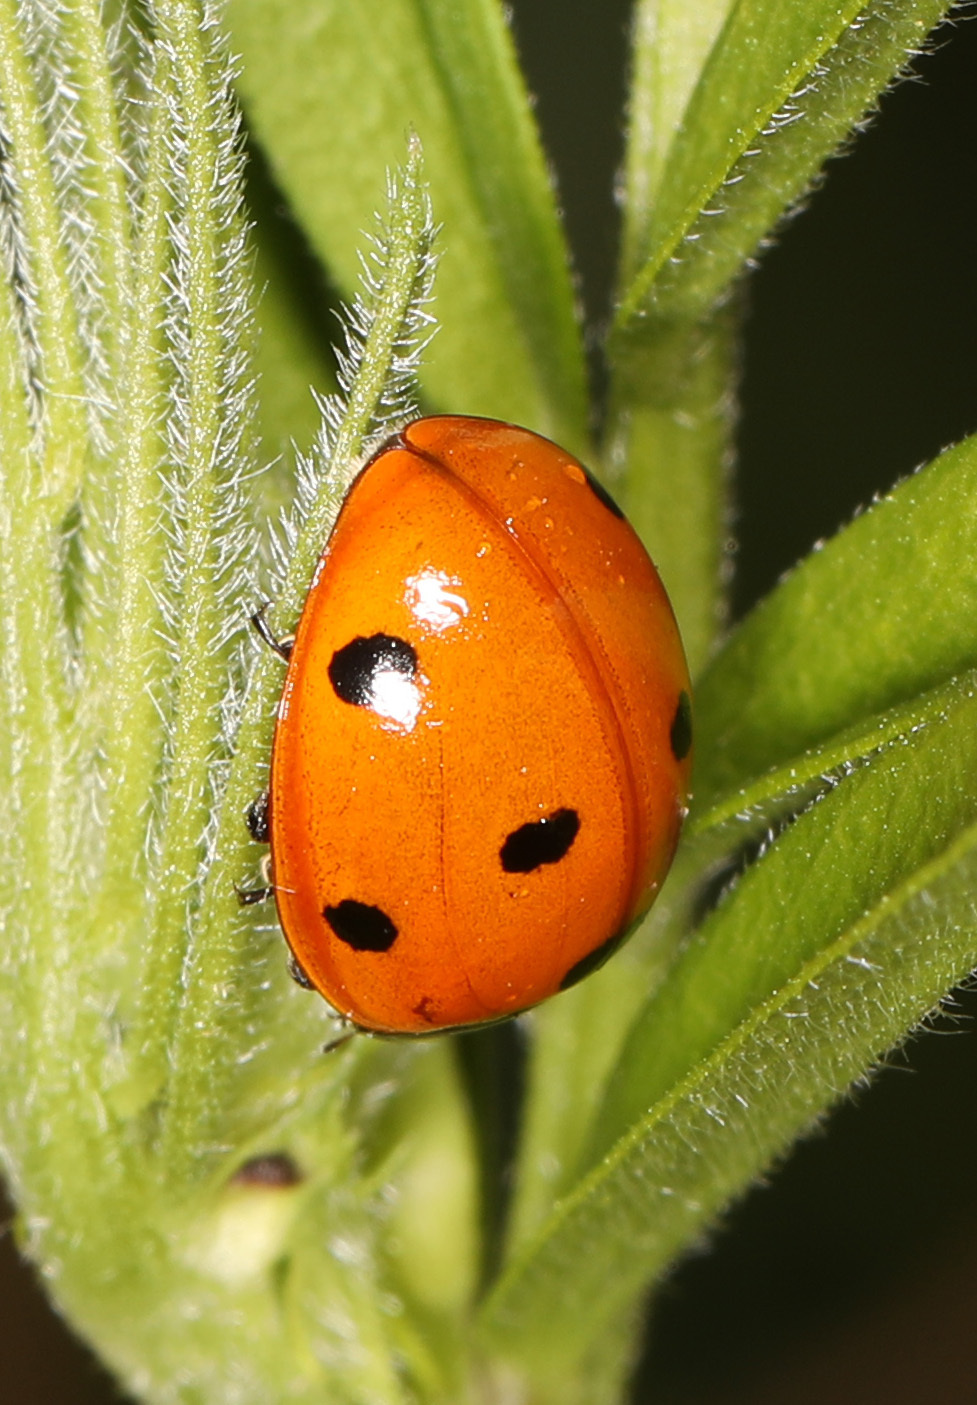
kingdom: Animalia
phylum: Arthropoda
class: Insecta
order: Coleoptera
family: Coccinellidae
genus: Coccinella
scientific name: Coccinella septempunctata
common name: Sevenspotted lady beetle
